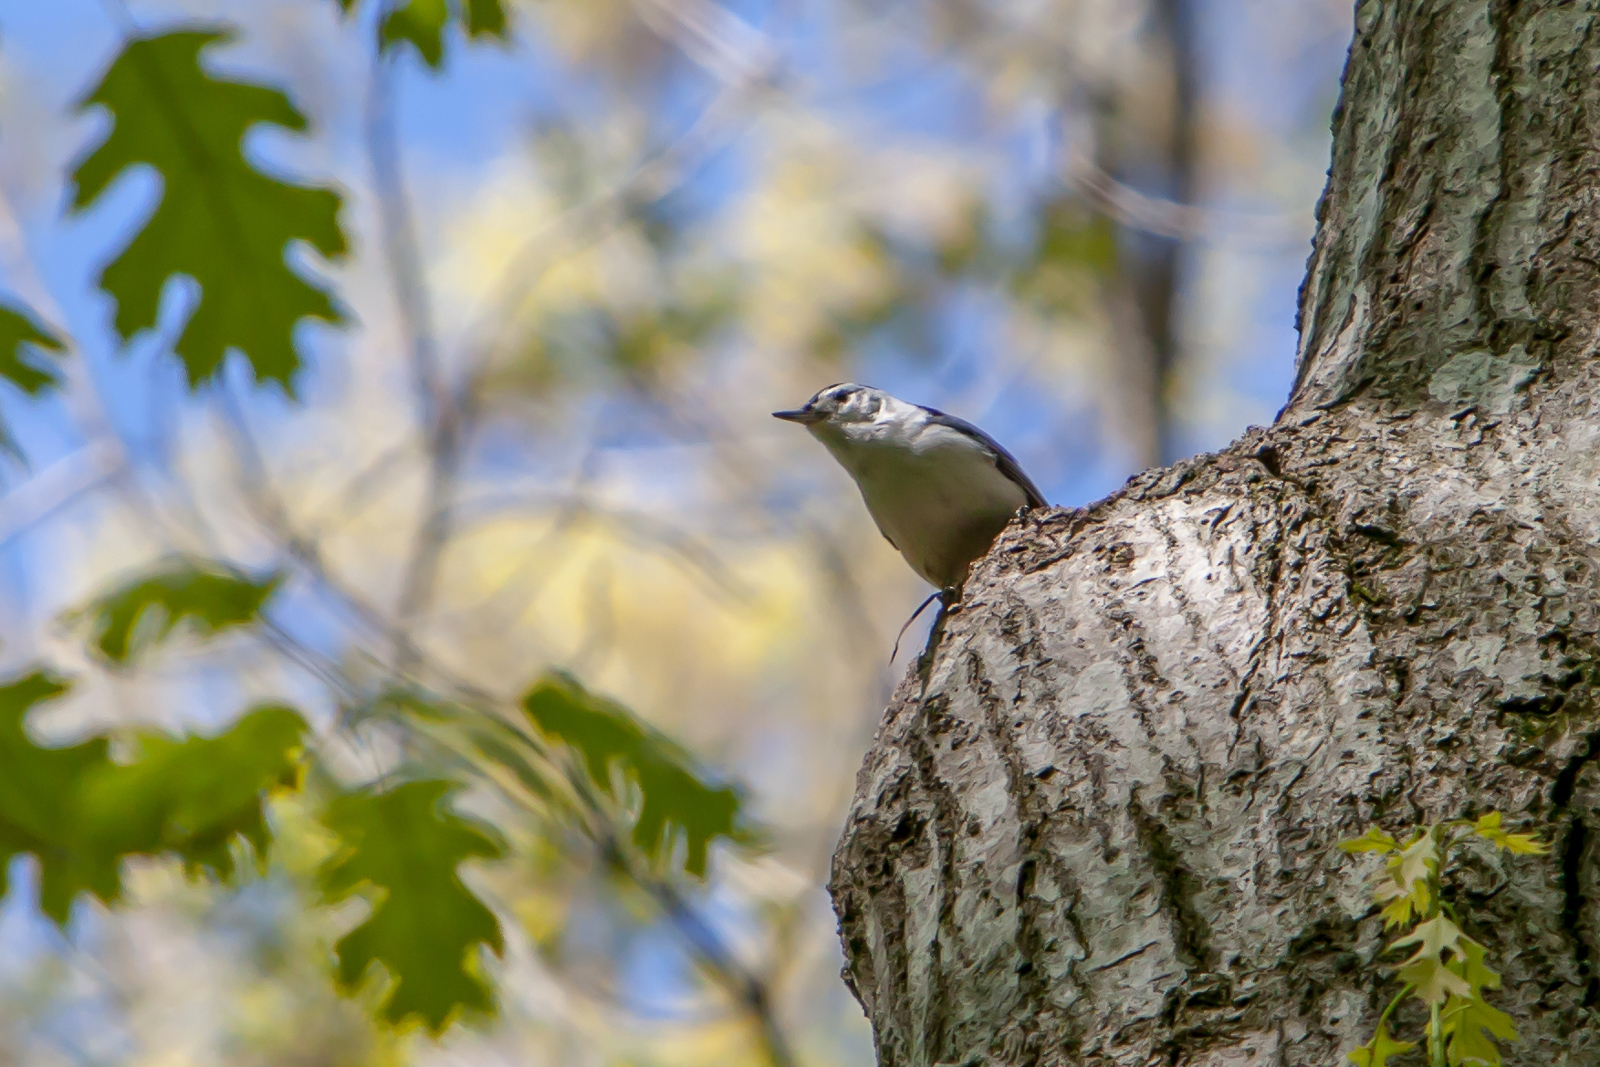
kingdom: Animalia
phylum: Chordata
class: Aves
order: Passeriformes
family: Sittidae
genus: Sitta
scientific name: Sitta carolinensis
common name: White-breasted nuthatch
